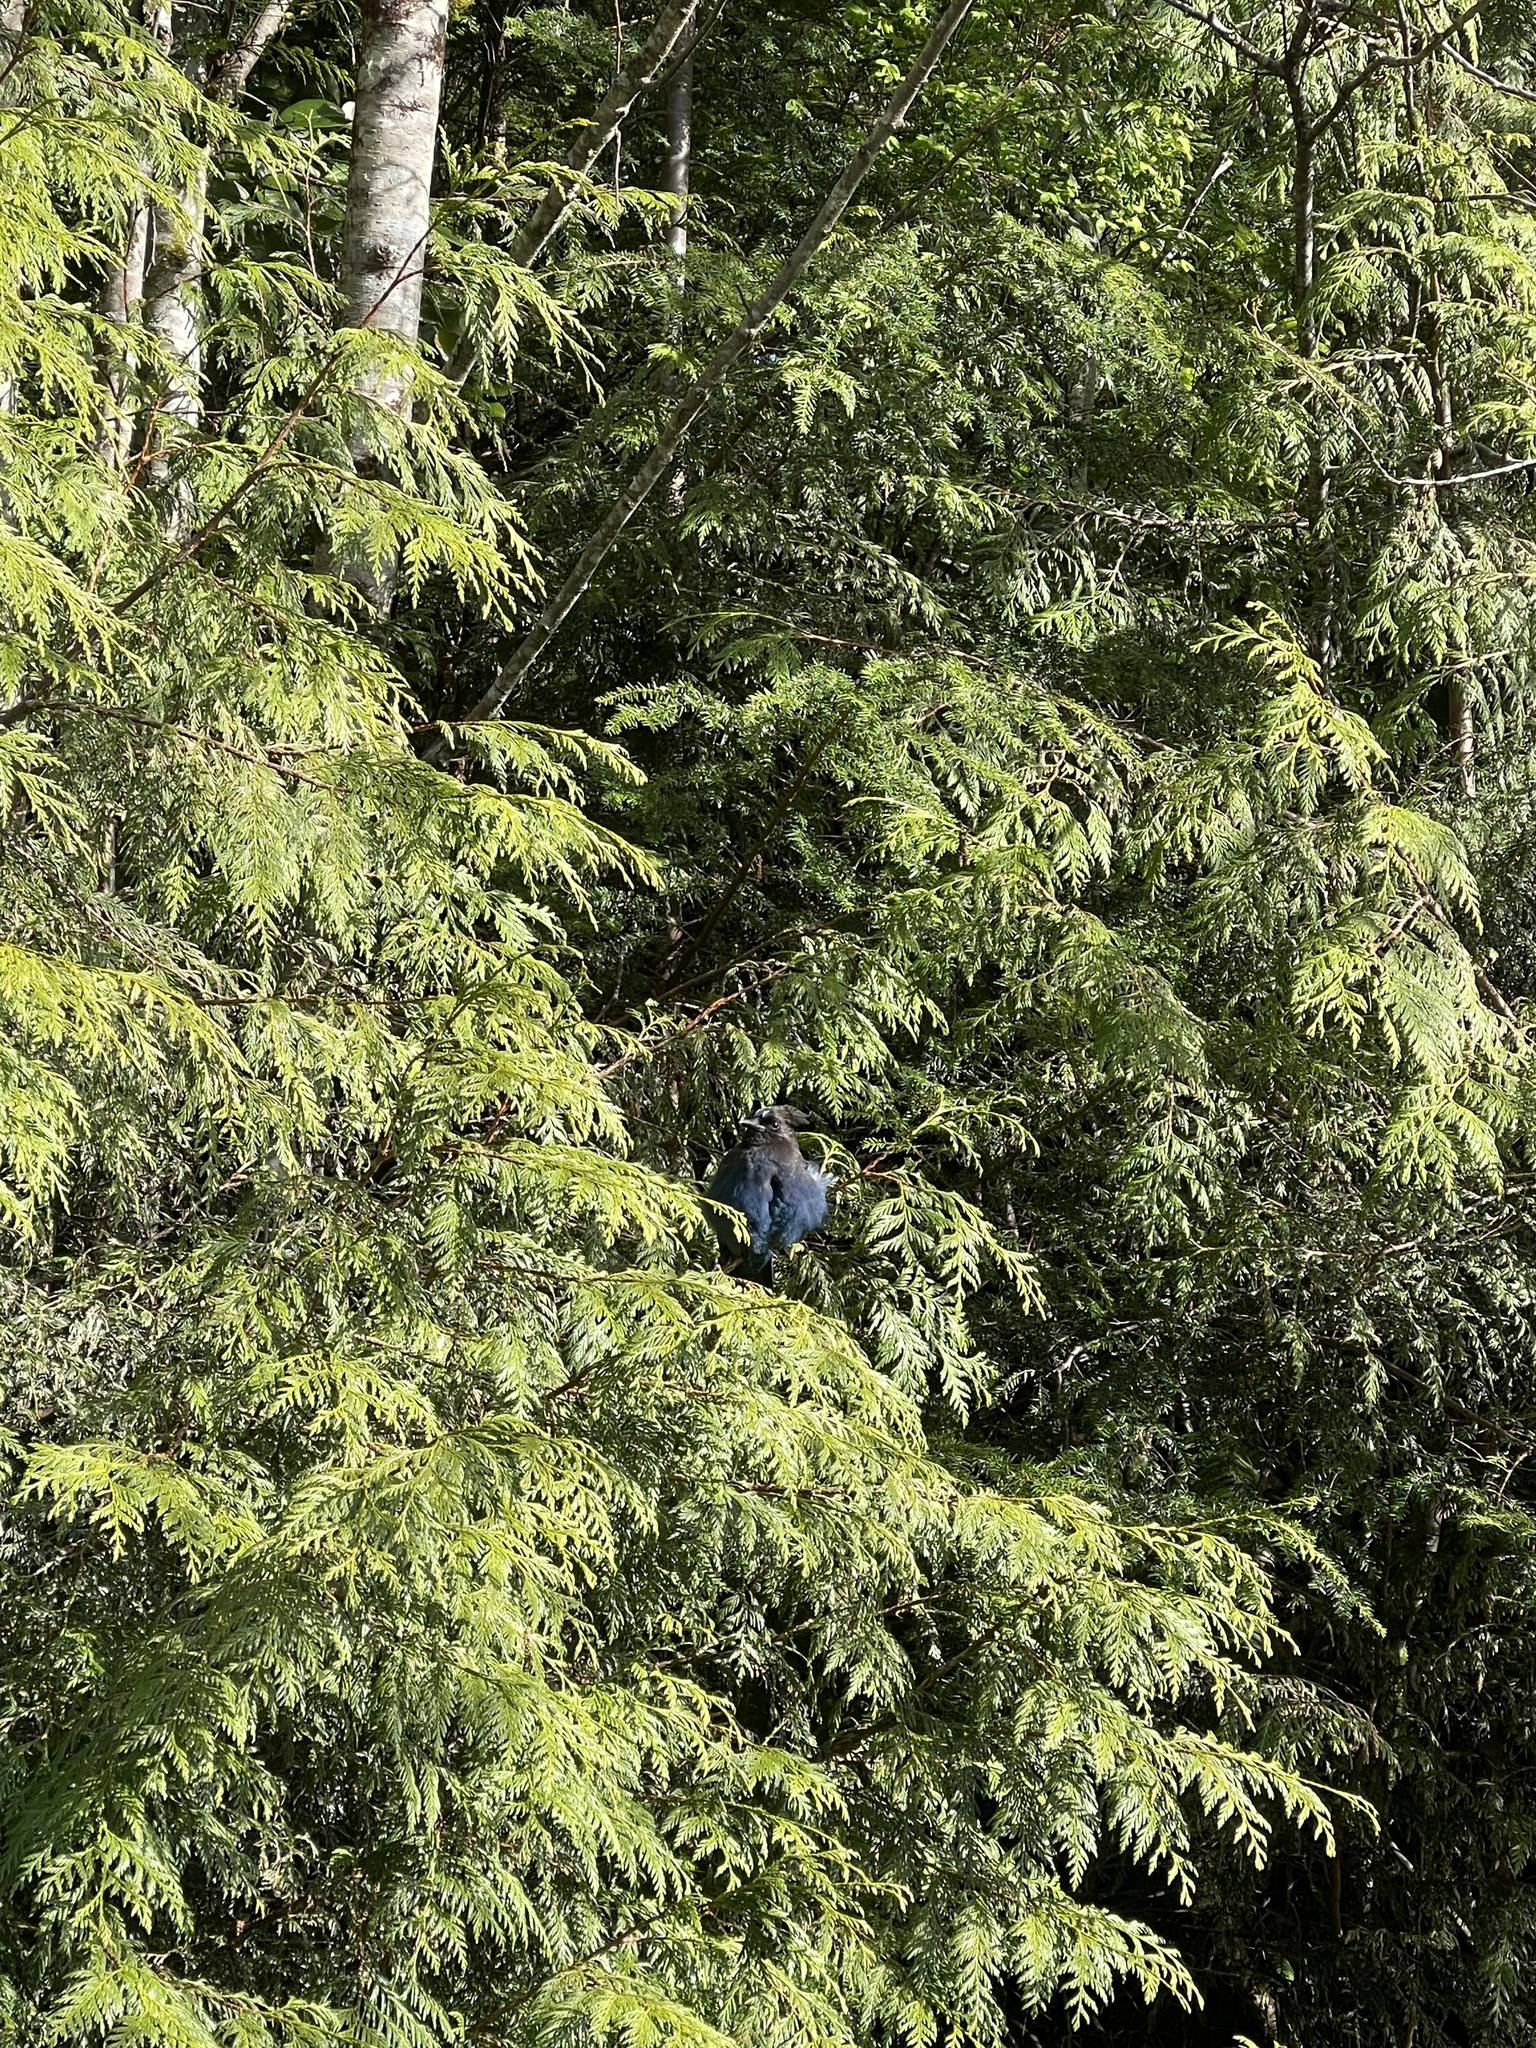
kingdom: Animalia
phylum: Chordata
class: Aves
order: Passeriformes
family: Corvidae
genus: Cyanocitta
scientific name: Cyanocitta stelleri
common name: Steller's jay
